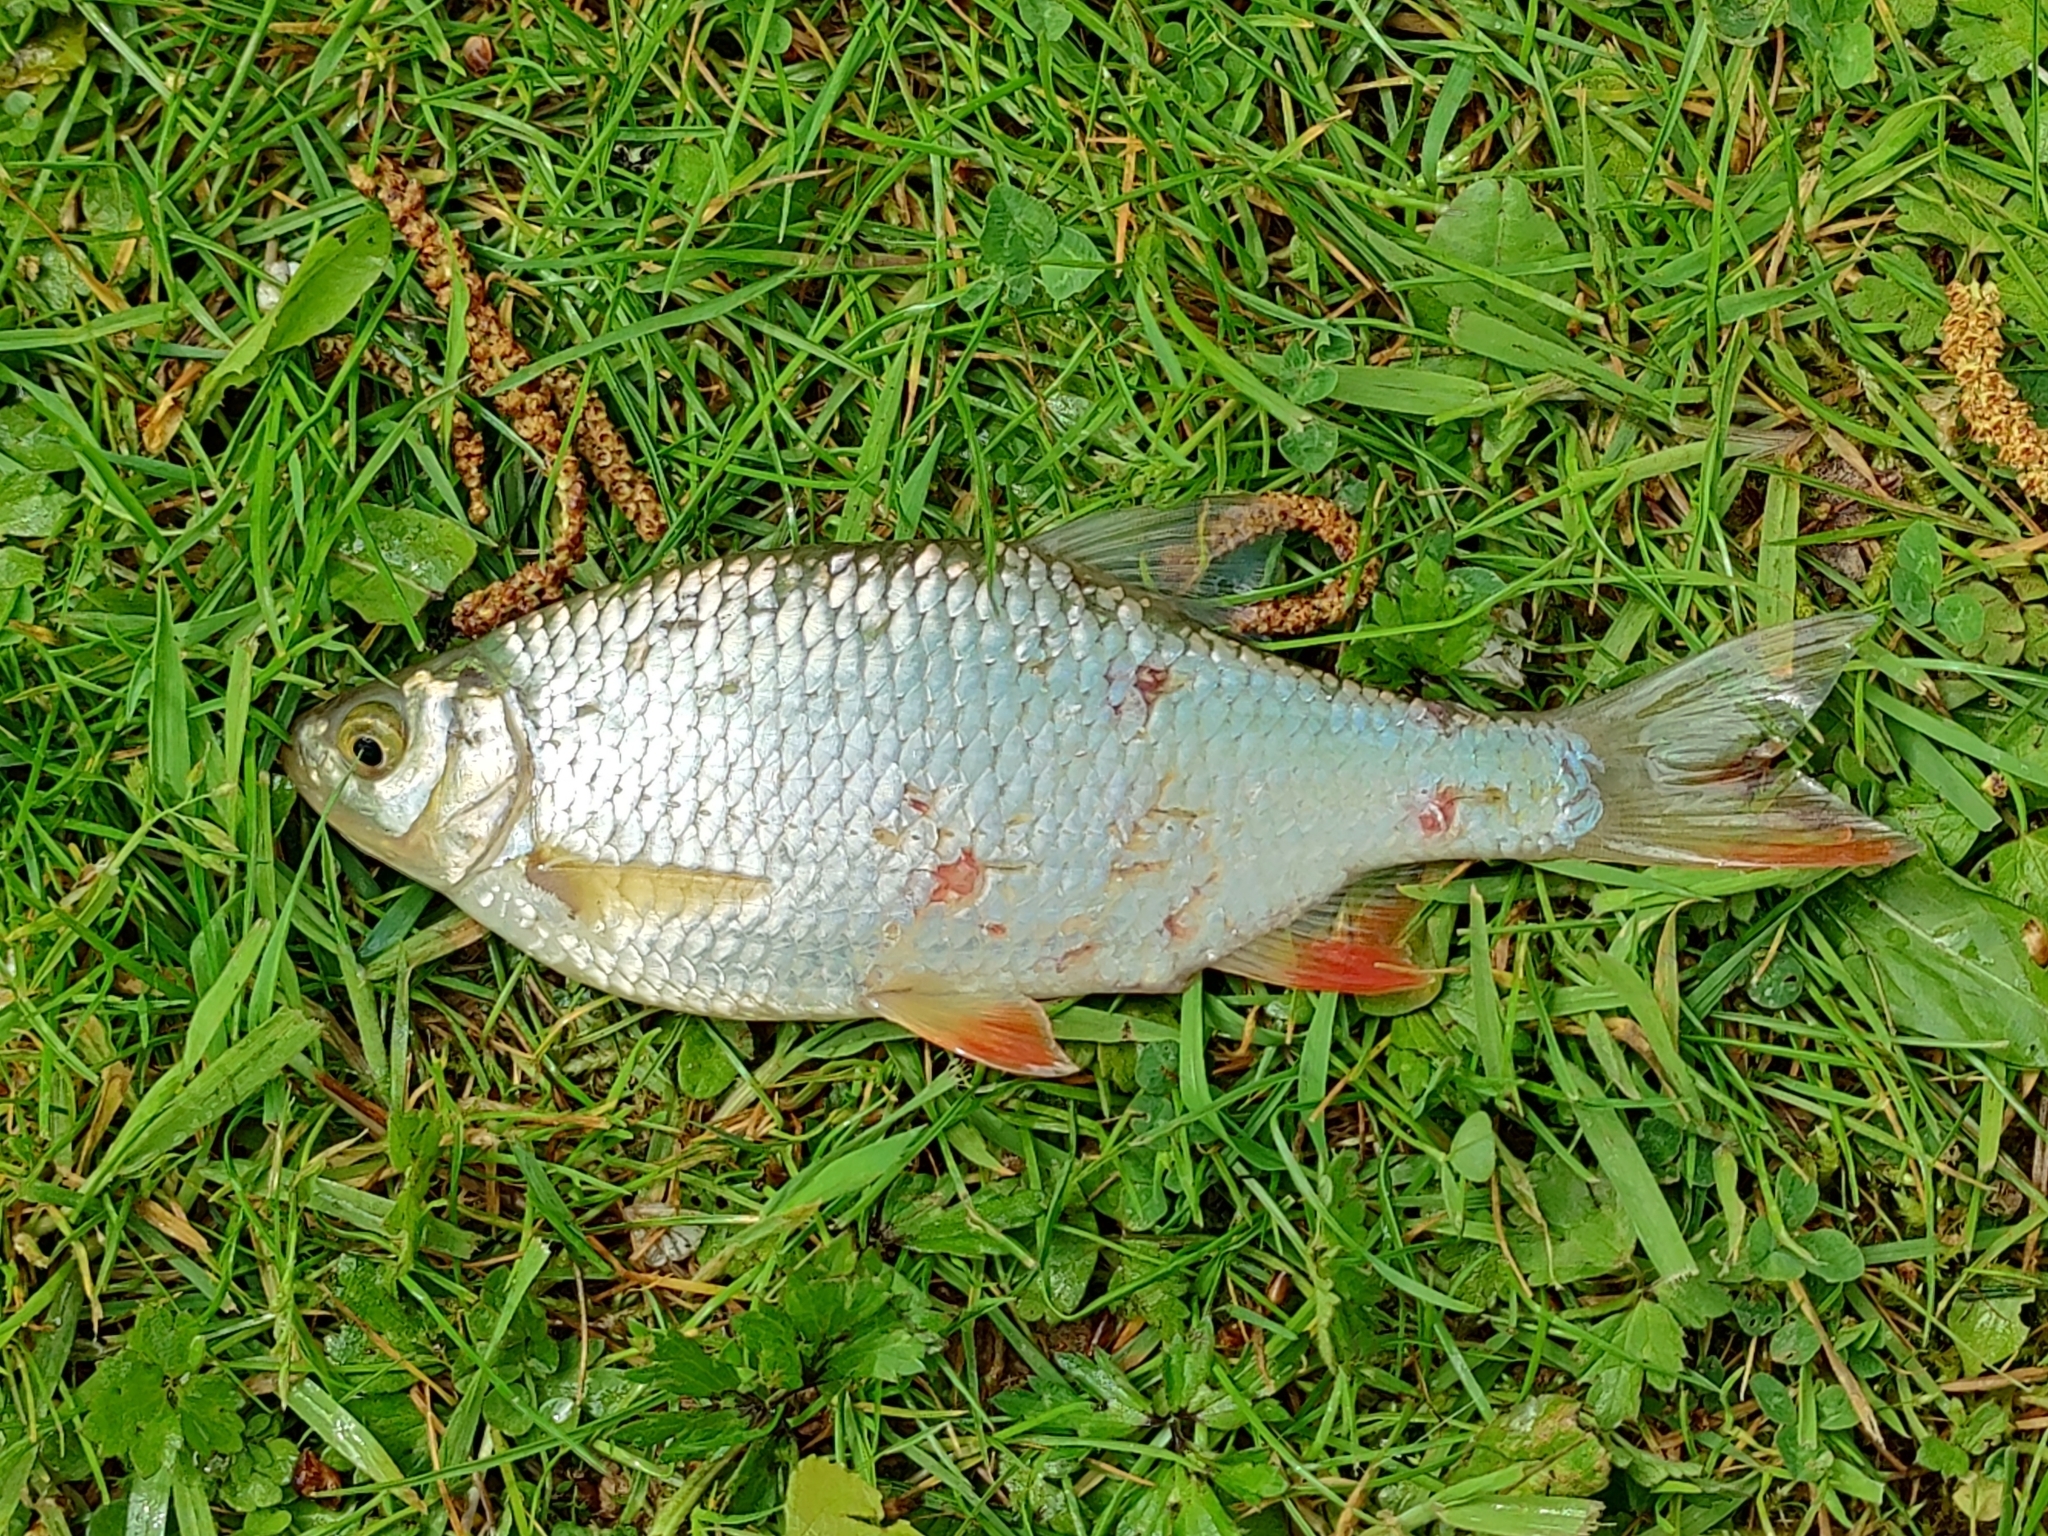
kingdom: Animalia
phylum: Chordata
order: Cypriniformes
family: Cyprinidae
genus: Scardinius
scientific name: Scardinius erythrophthalmus
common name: Rudd
